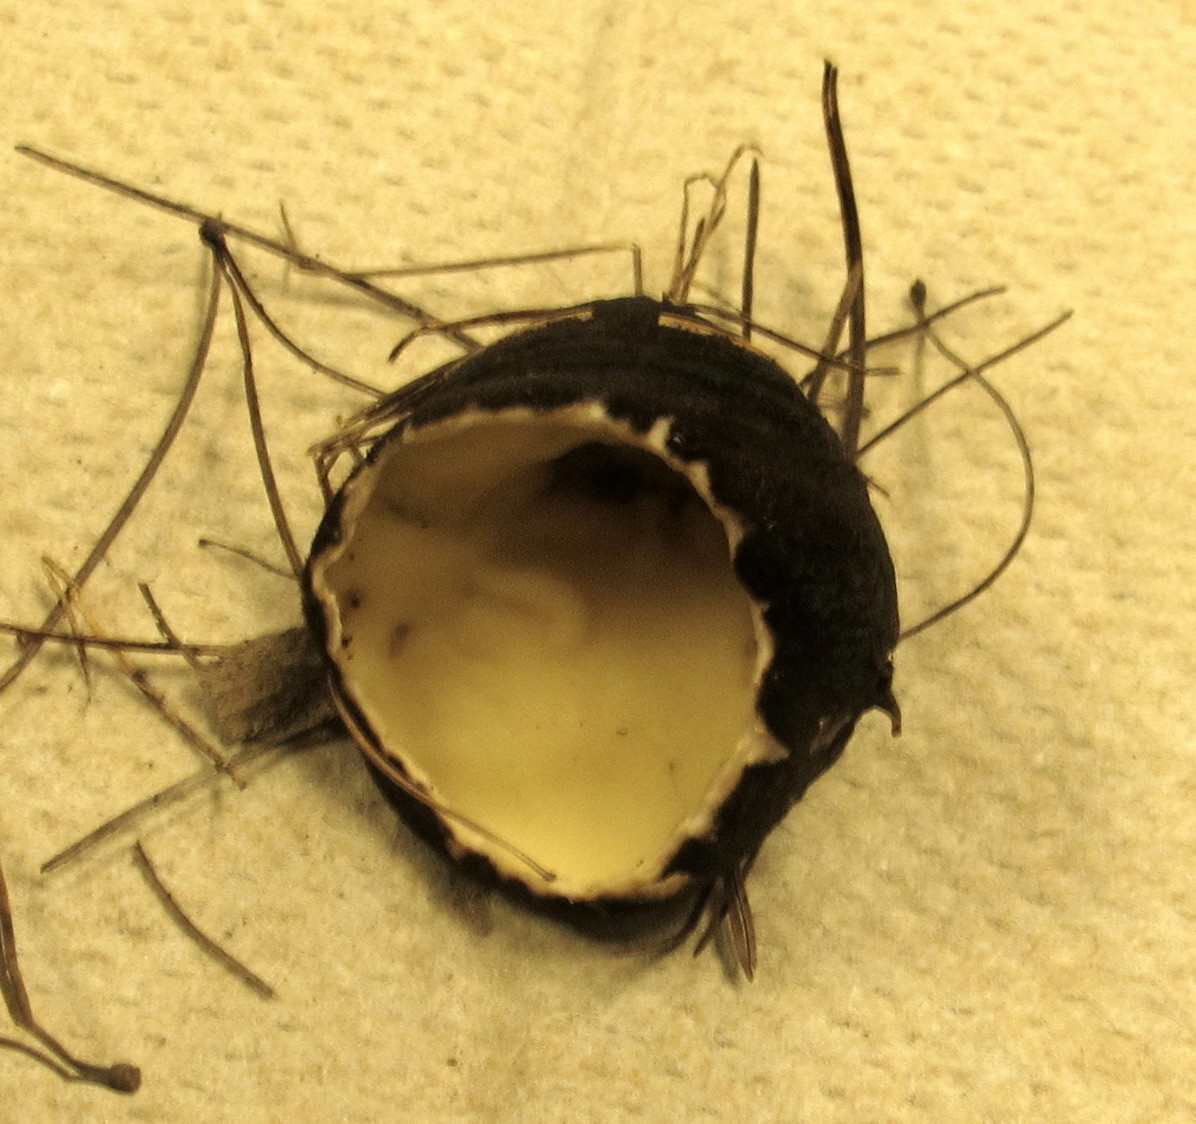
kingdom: Fungi
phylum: Ascomycota
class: Pezizomycetes
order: Pezizales
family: Chorioactidaceae
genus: Wolfina
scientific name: Wolfina aurantiopsis
